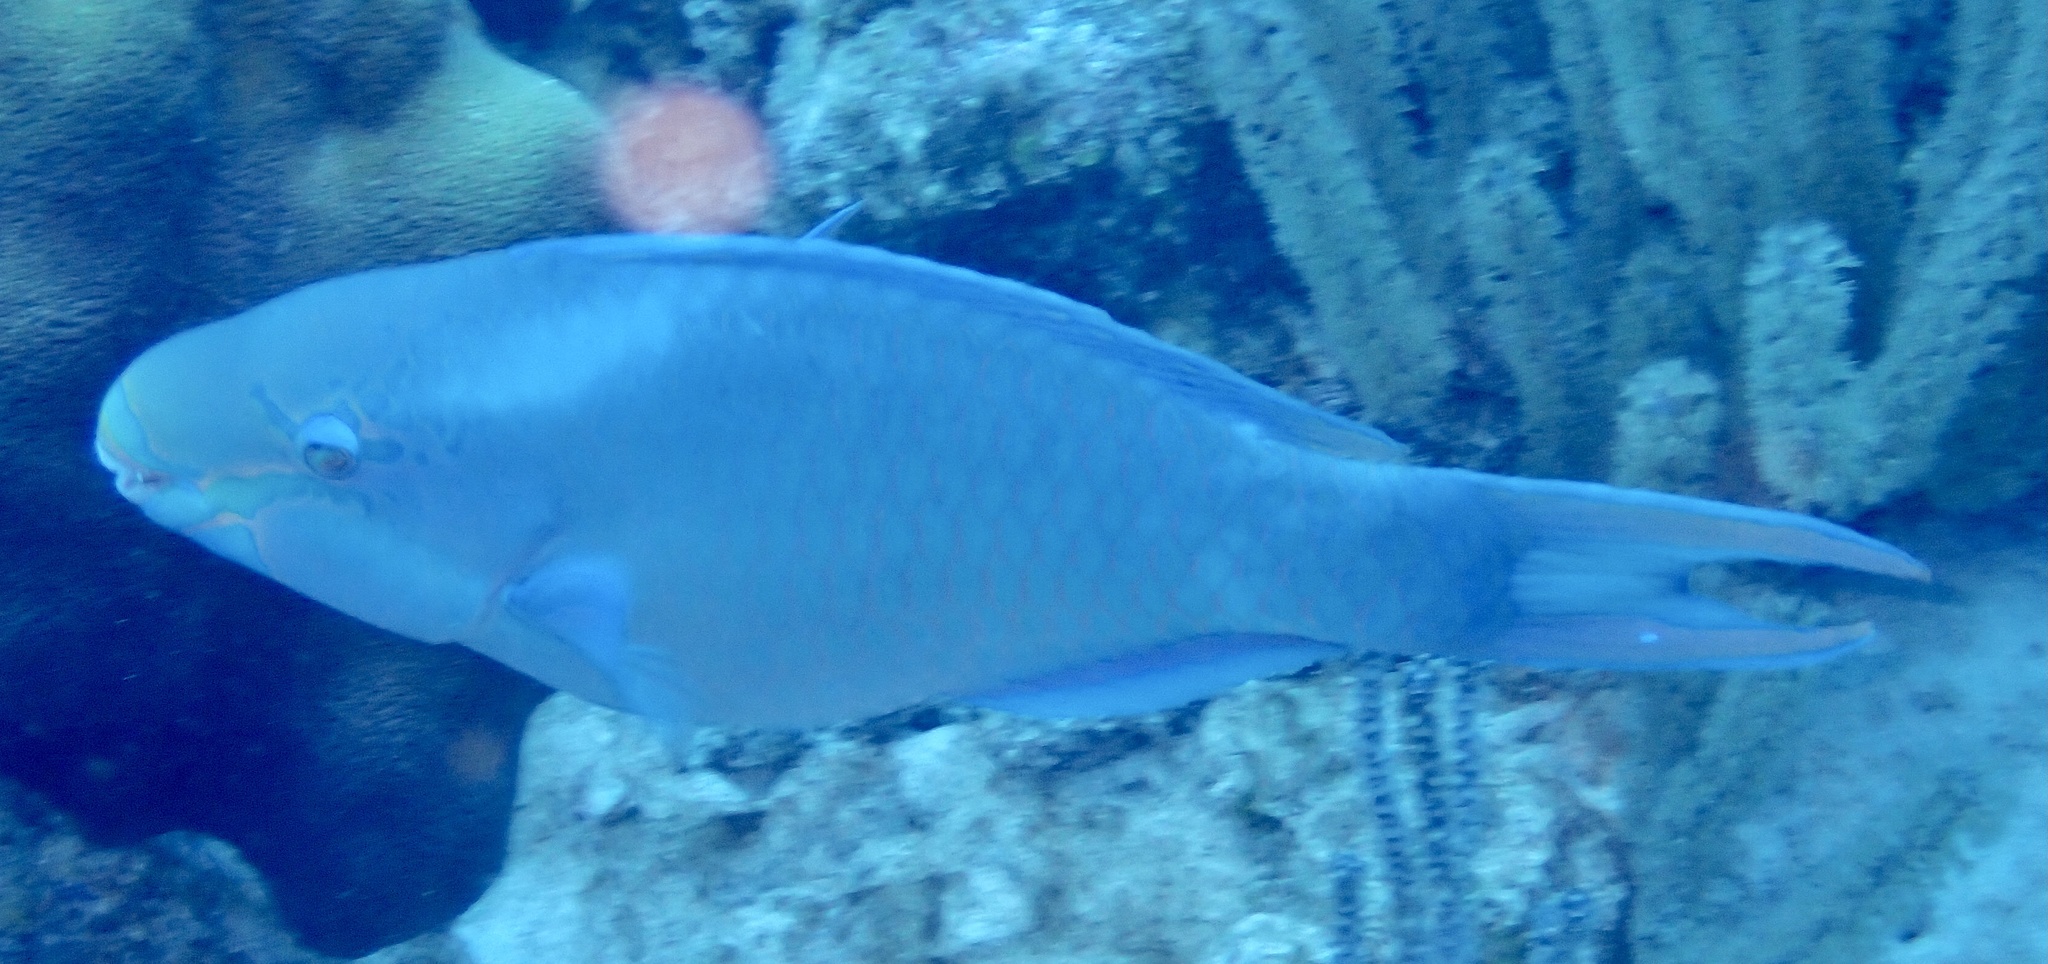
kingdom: Animalia
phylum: Chordata
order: Perciformes
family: Scaridae
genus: Scarus
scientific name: Scarus vetula
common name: Queen parrotfish
